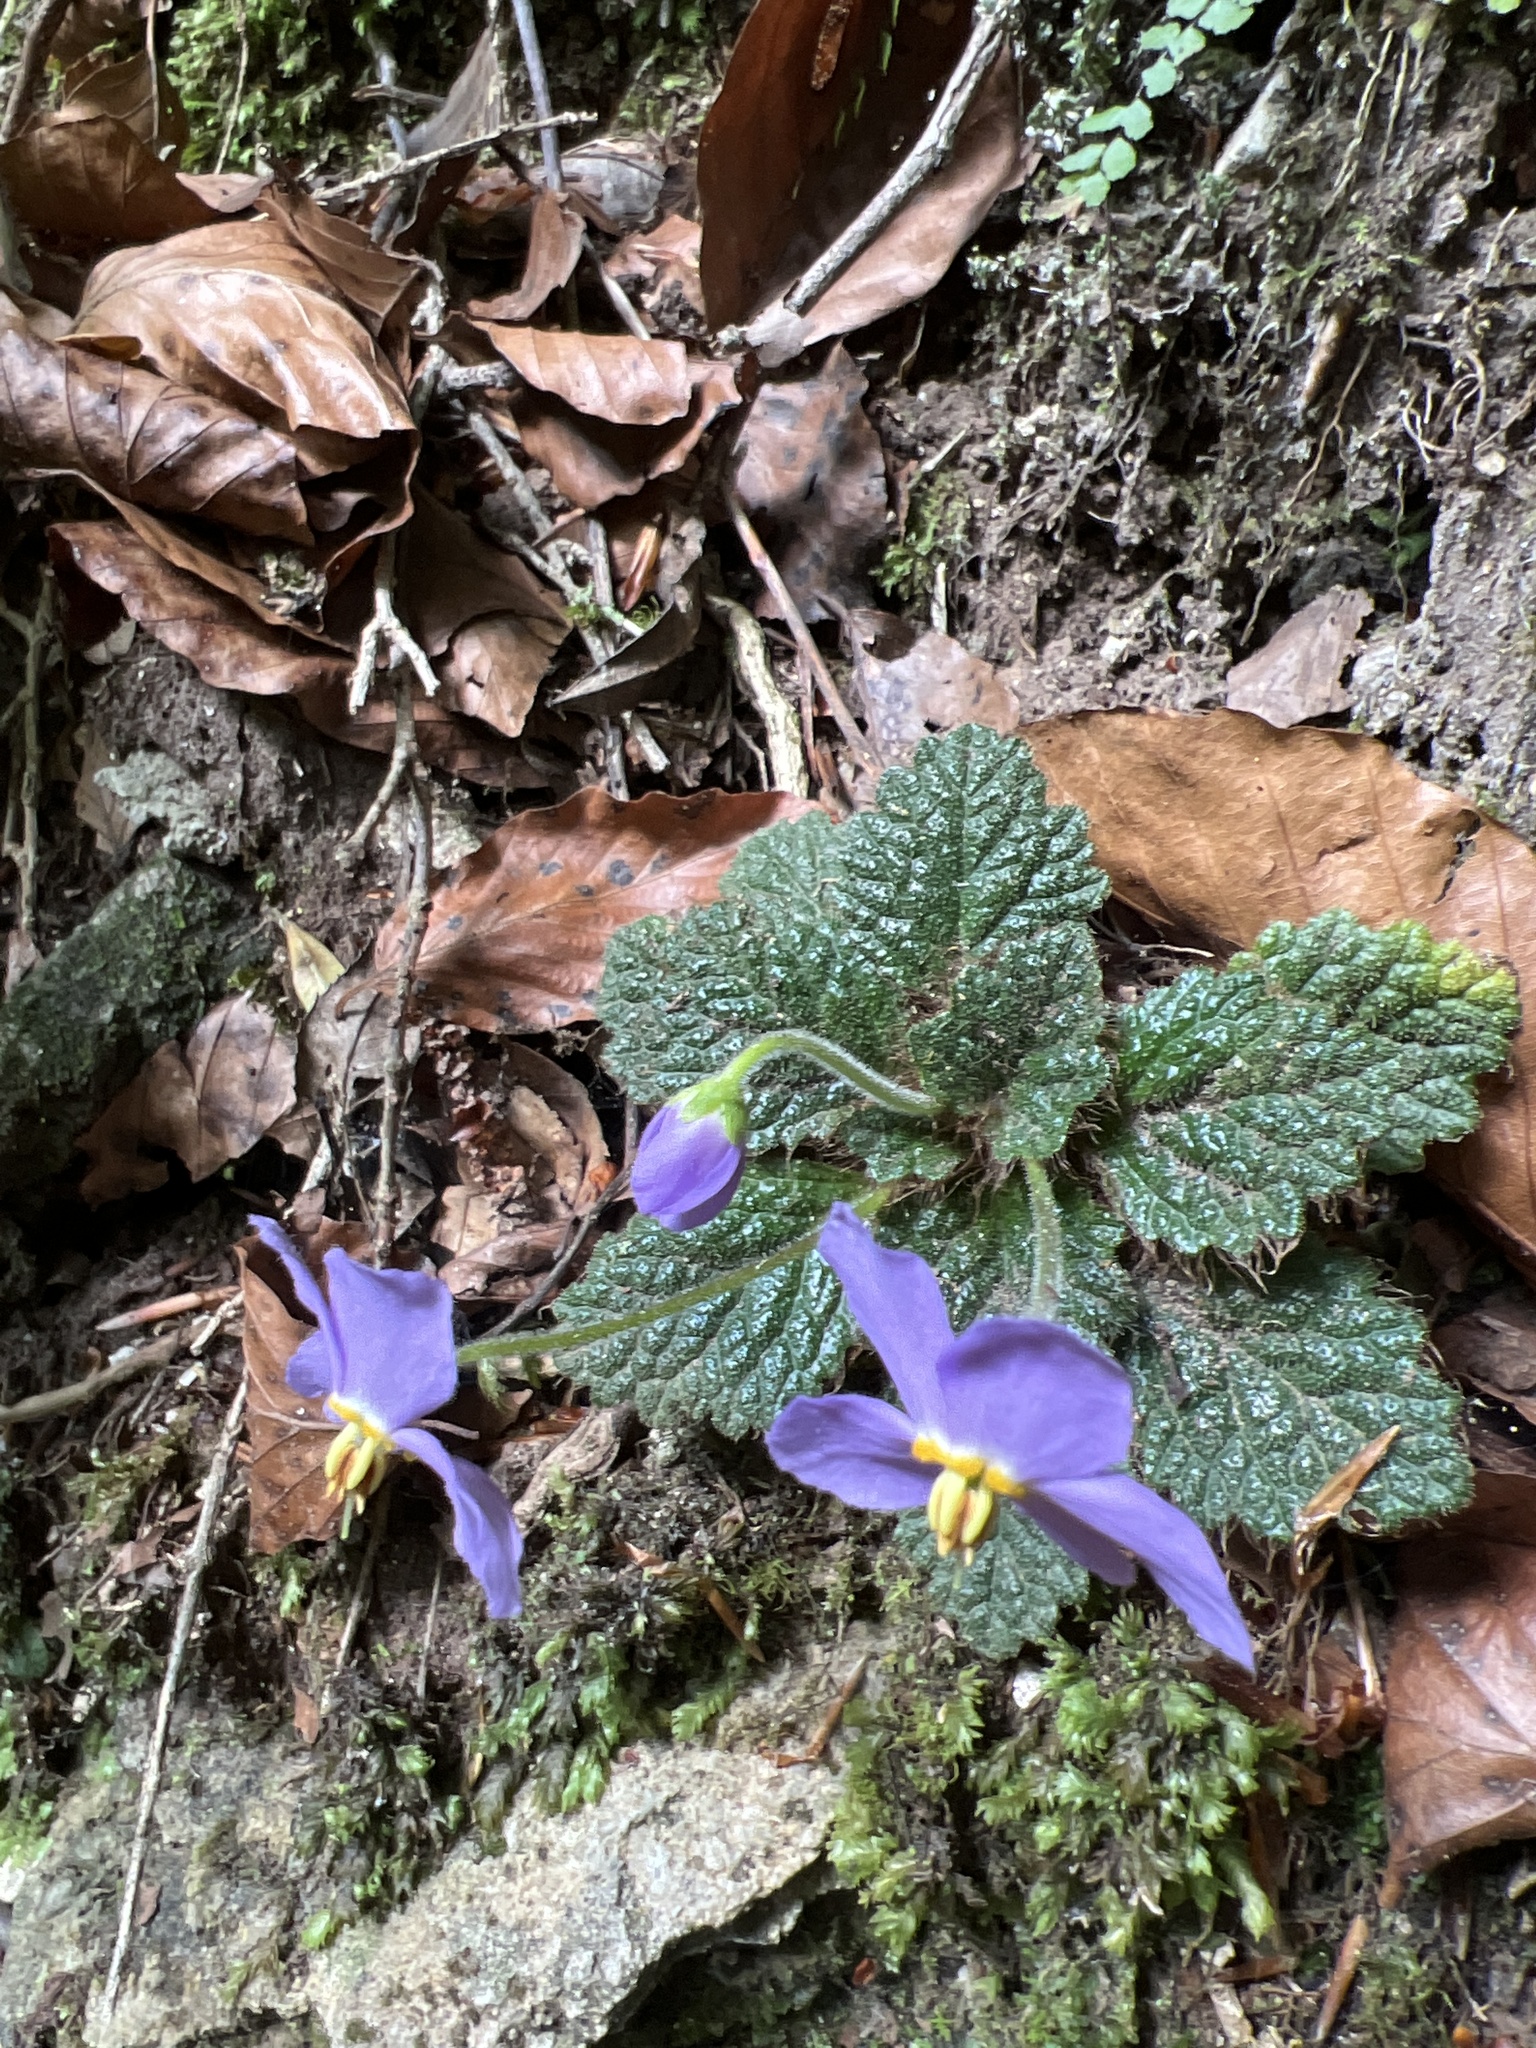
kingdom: Plantae
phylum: Tracheophyta
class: Magnoliopsida
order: Lamiales
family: Gesneriaceae
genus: Ramonda
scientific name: Ramonda myconi
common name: Pyrenean-violet
